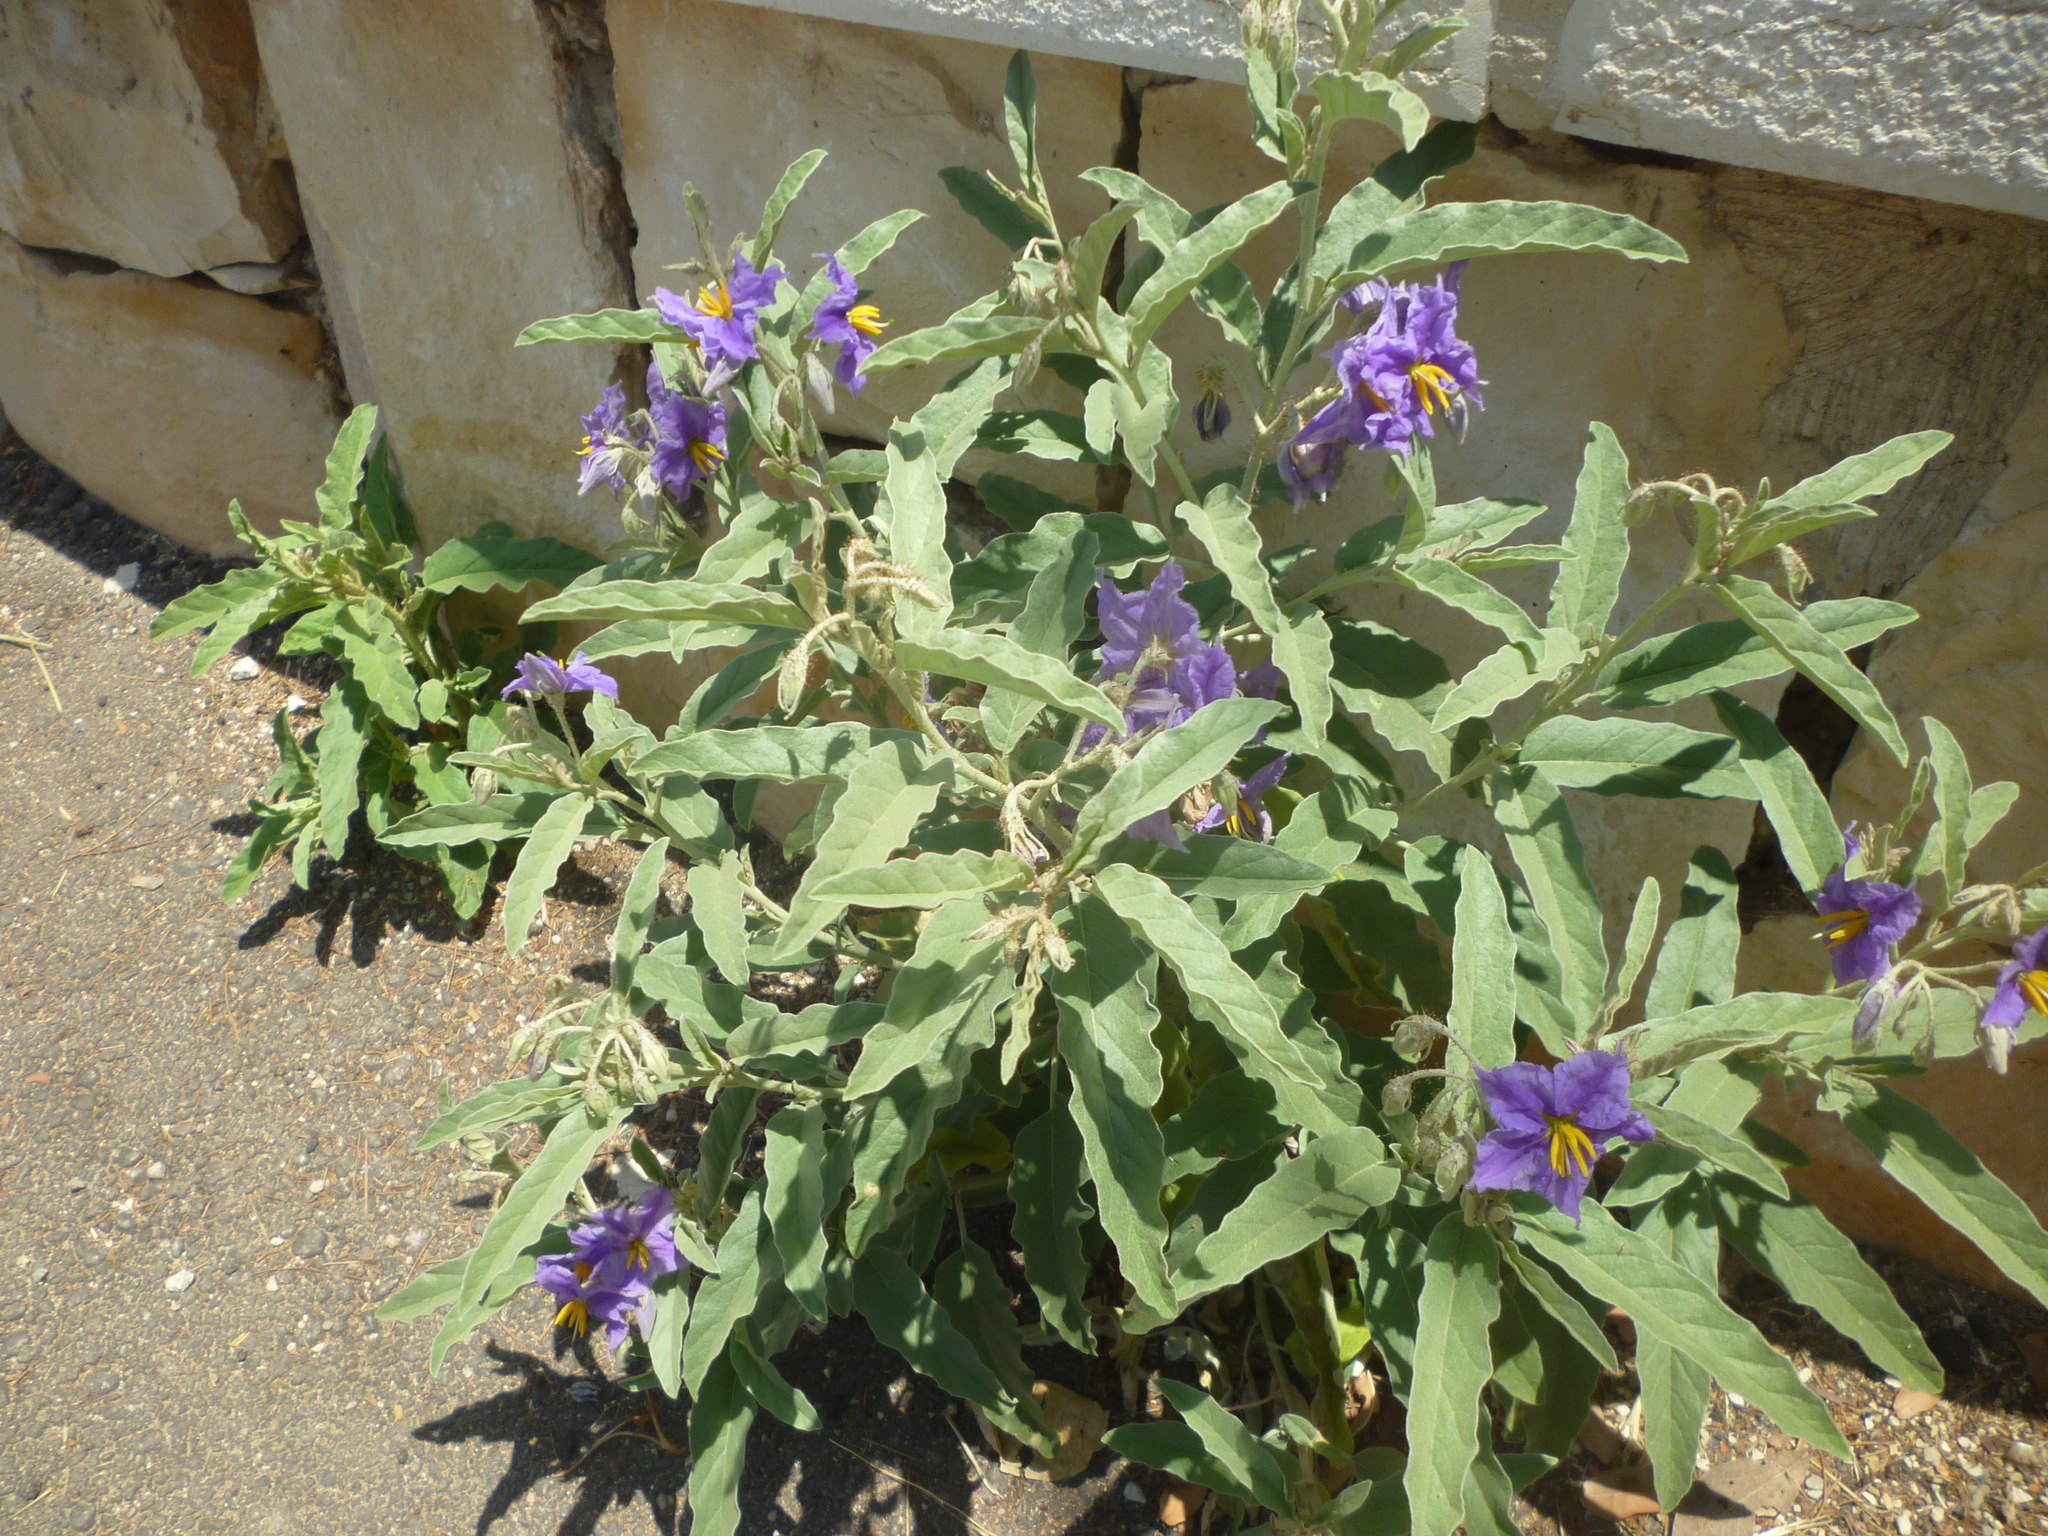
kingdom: Plantae
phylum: Tracheophyta
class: Magnoliopsida
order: Solanales
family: Solanaceae
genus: Solanum
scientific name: Solanum elaeagnifolium
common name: Silverleaf nightshade
